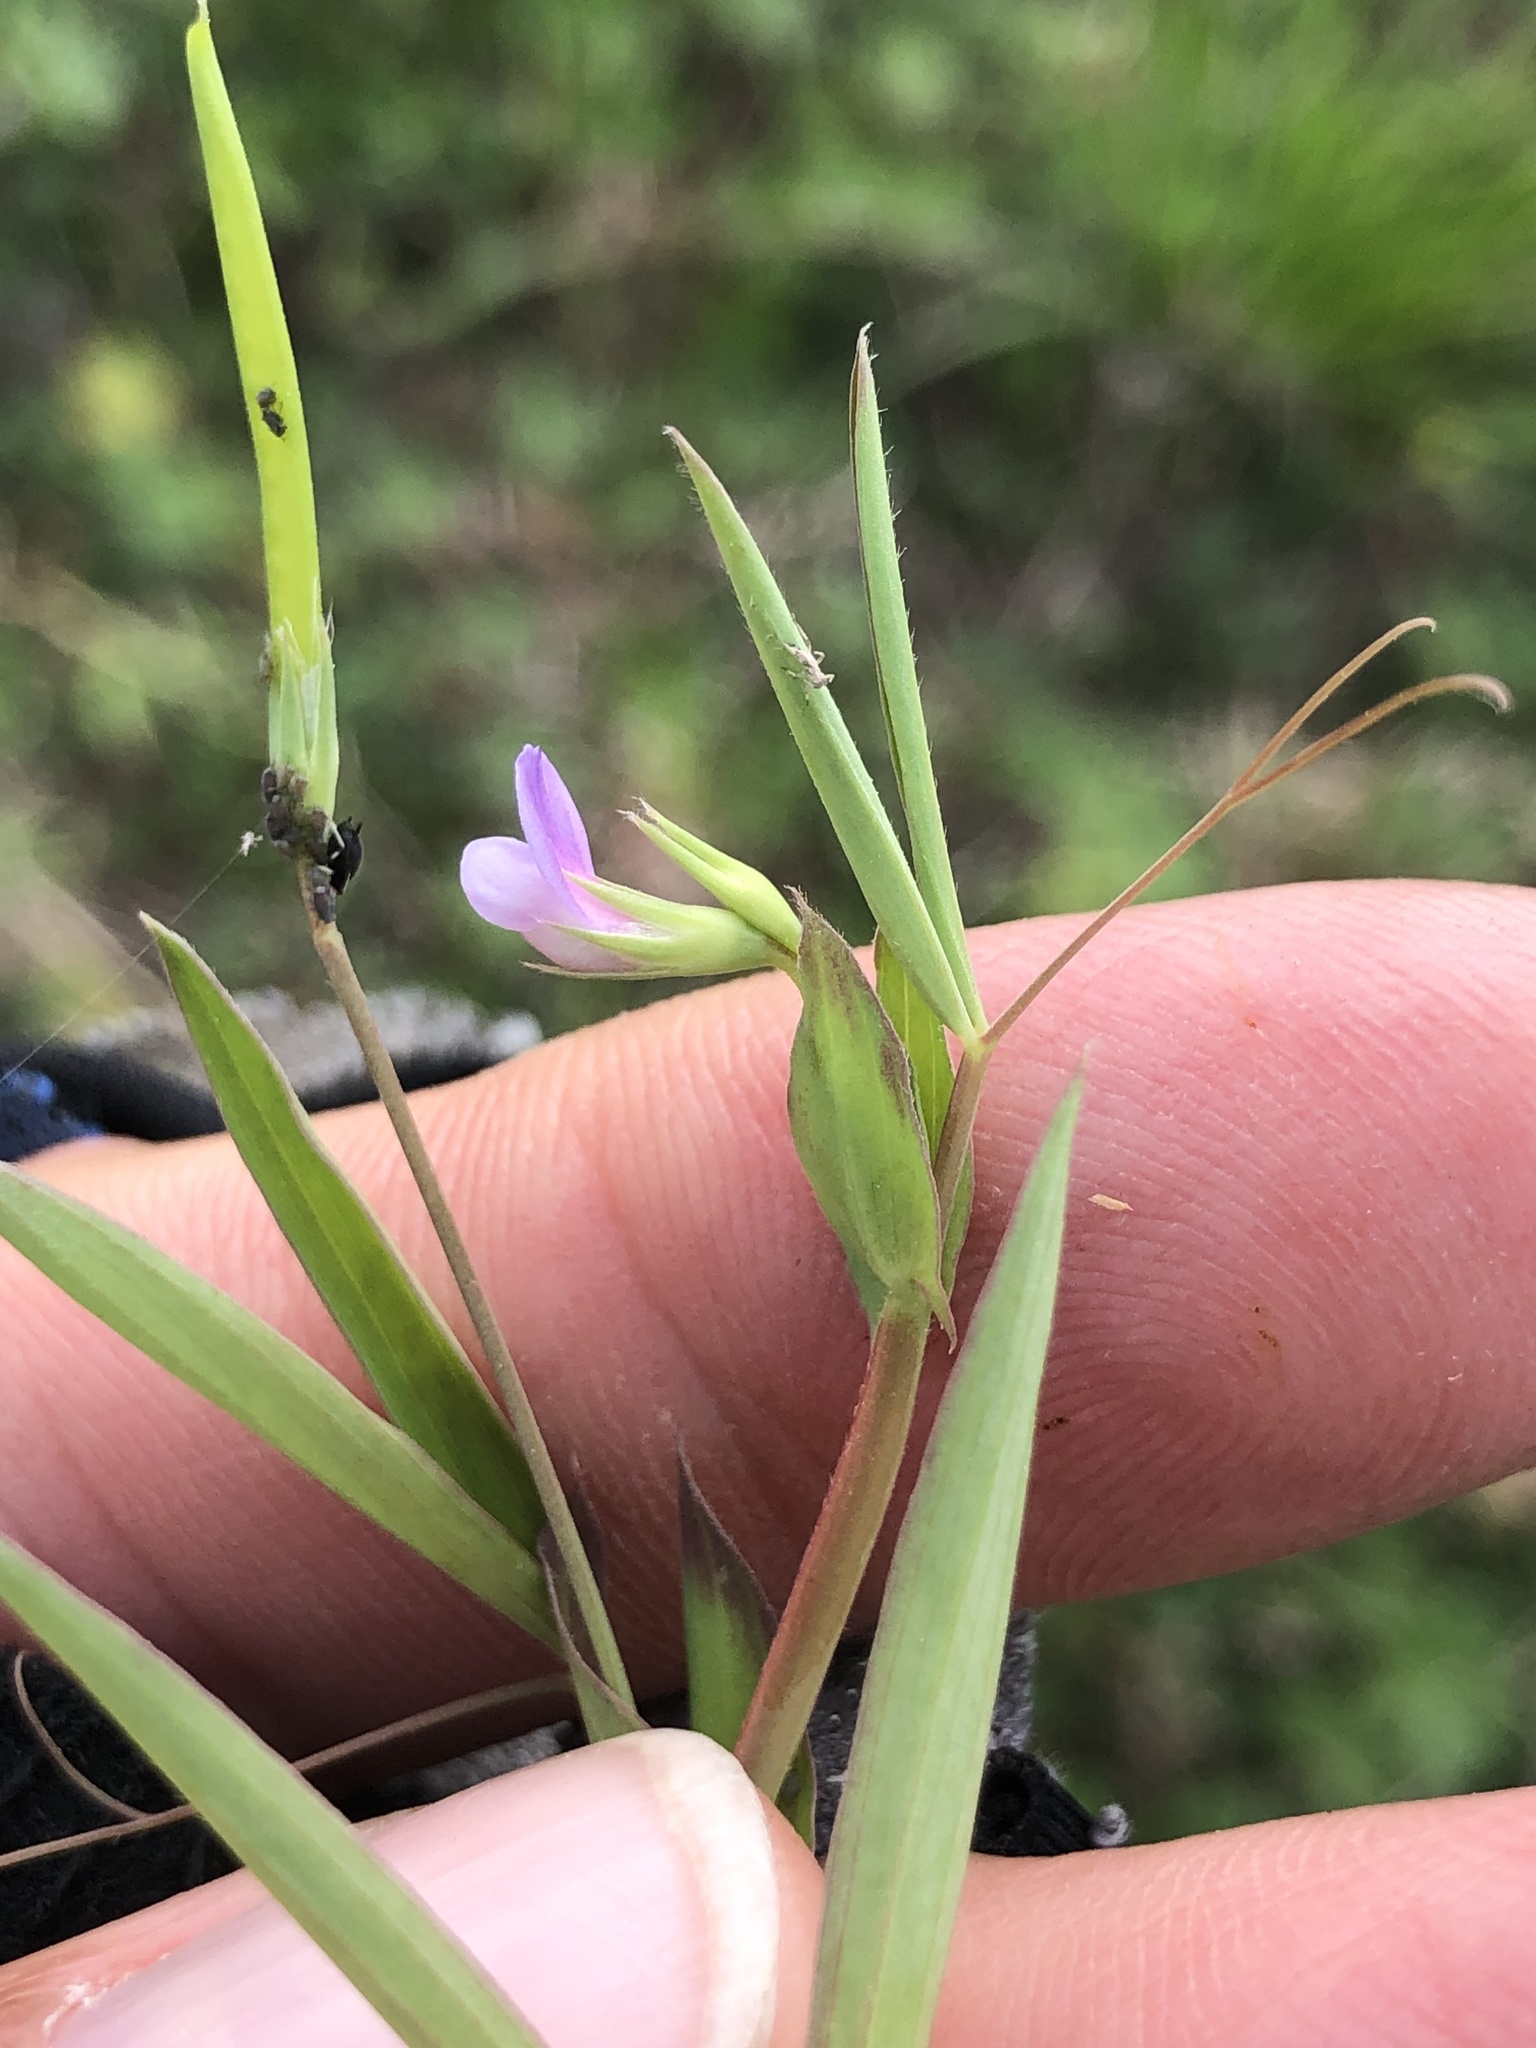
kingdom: Plantae
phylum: Tracheophyta
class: Magnoliopsida
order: Fabales
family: Fabaceae
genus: Lathyrus
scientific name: Lathyrus pusillus
